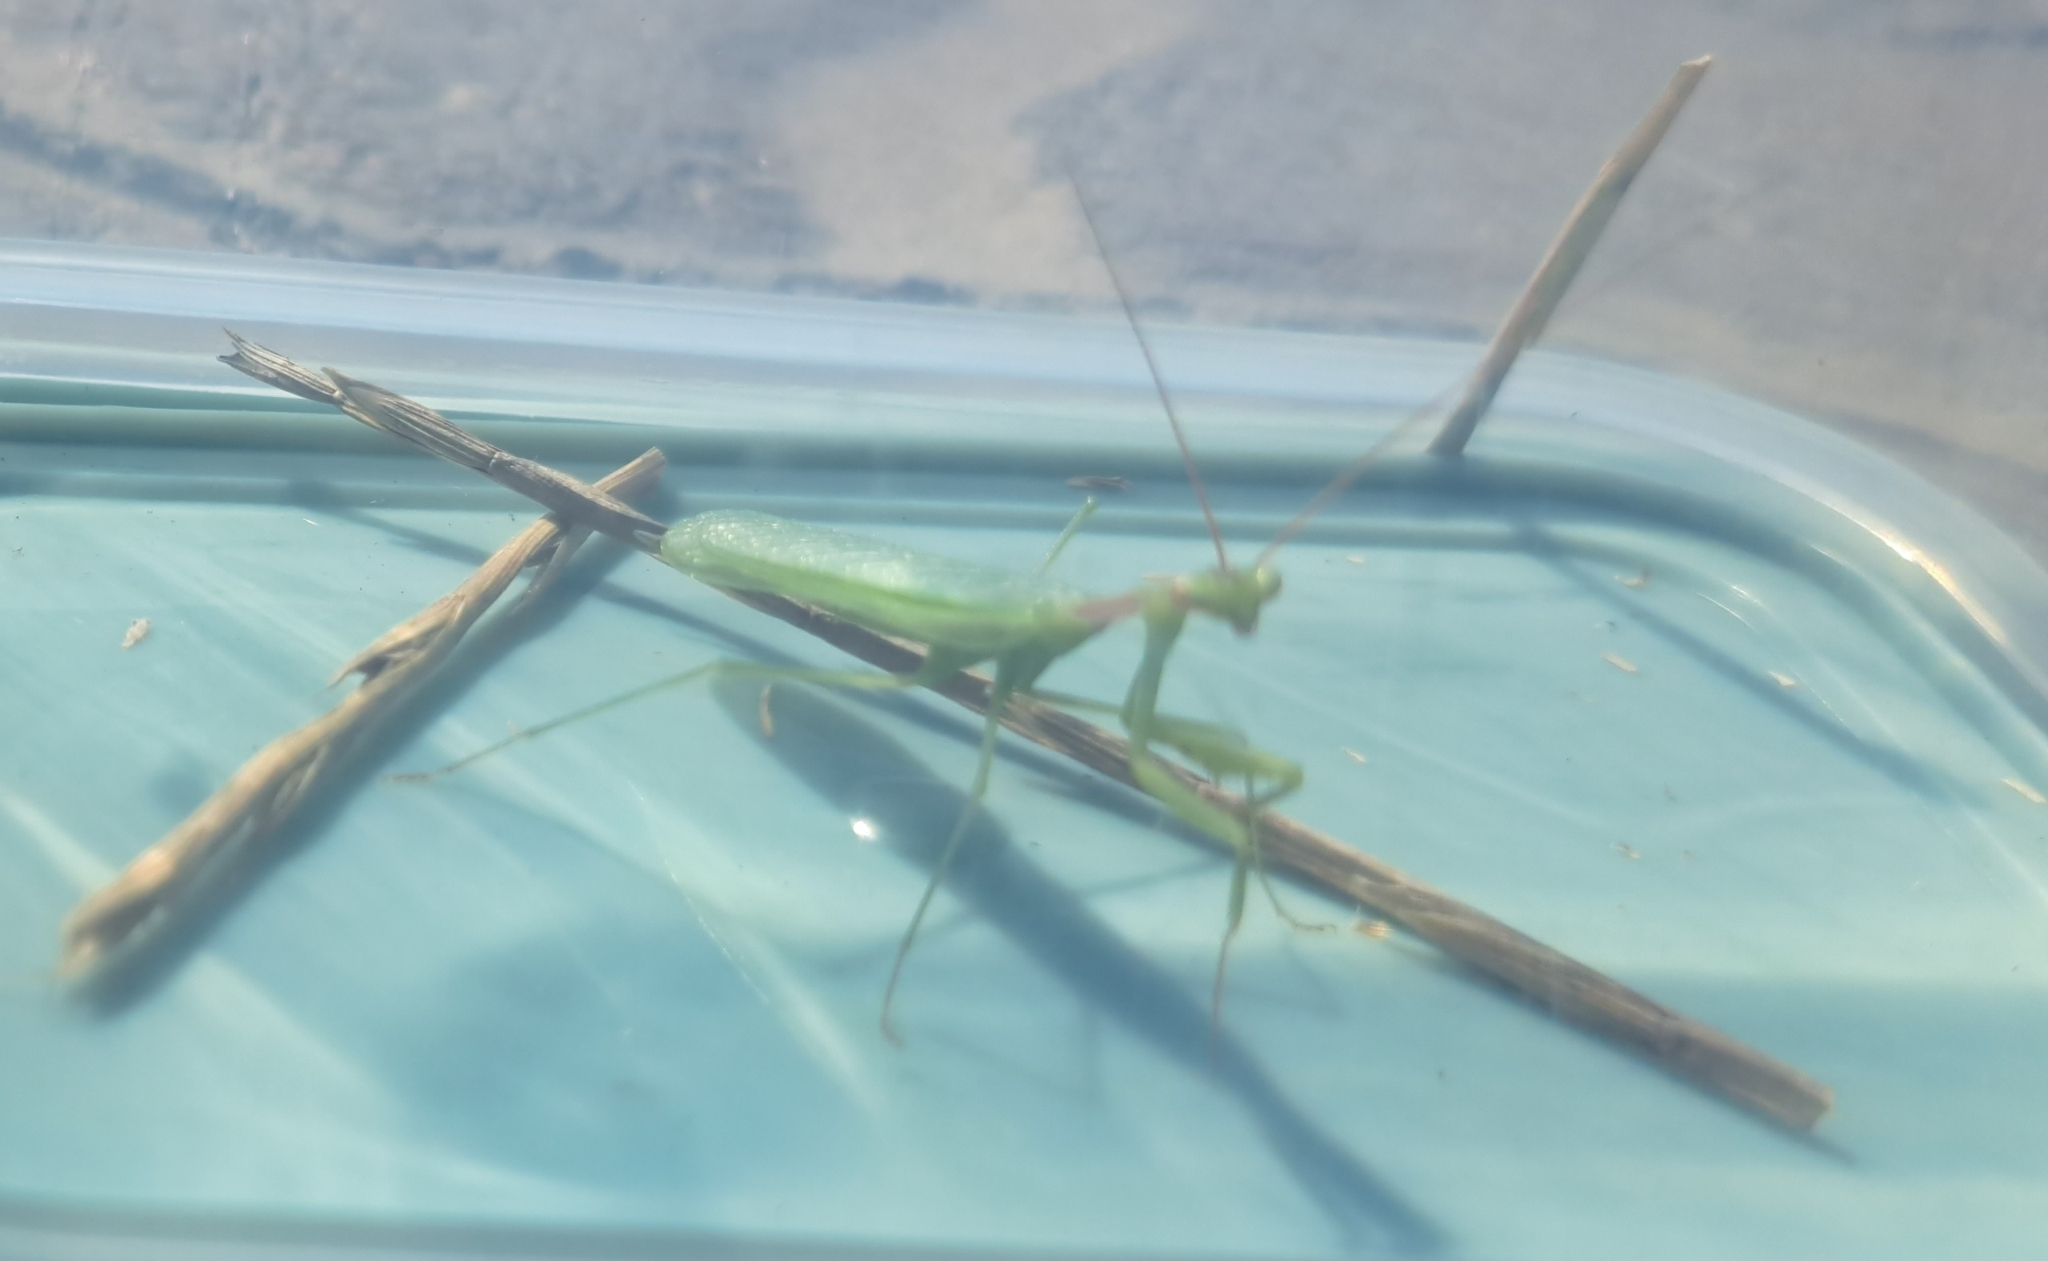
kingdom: Animalia
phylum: Arthropoda
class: Insecta
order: Mantodea
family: Miomantidae
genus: Miomantis
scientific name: Miomantis caffra
